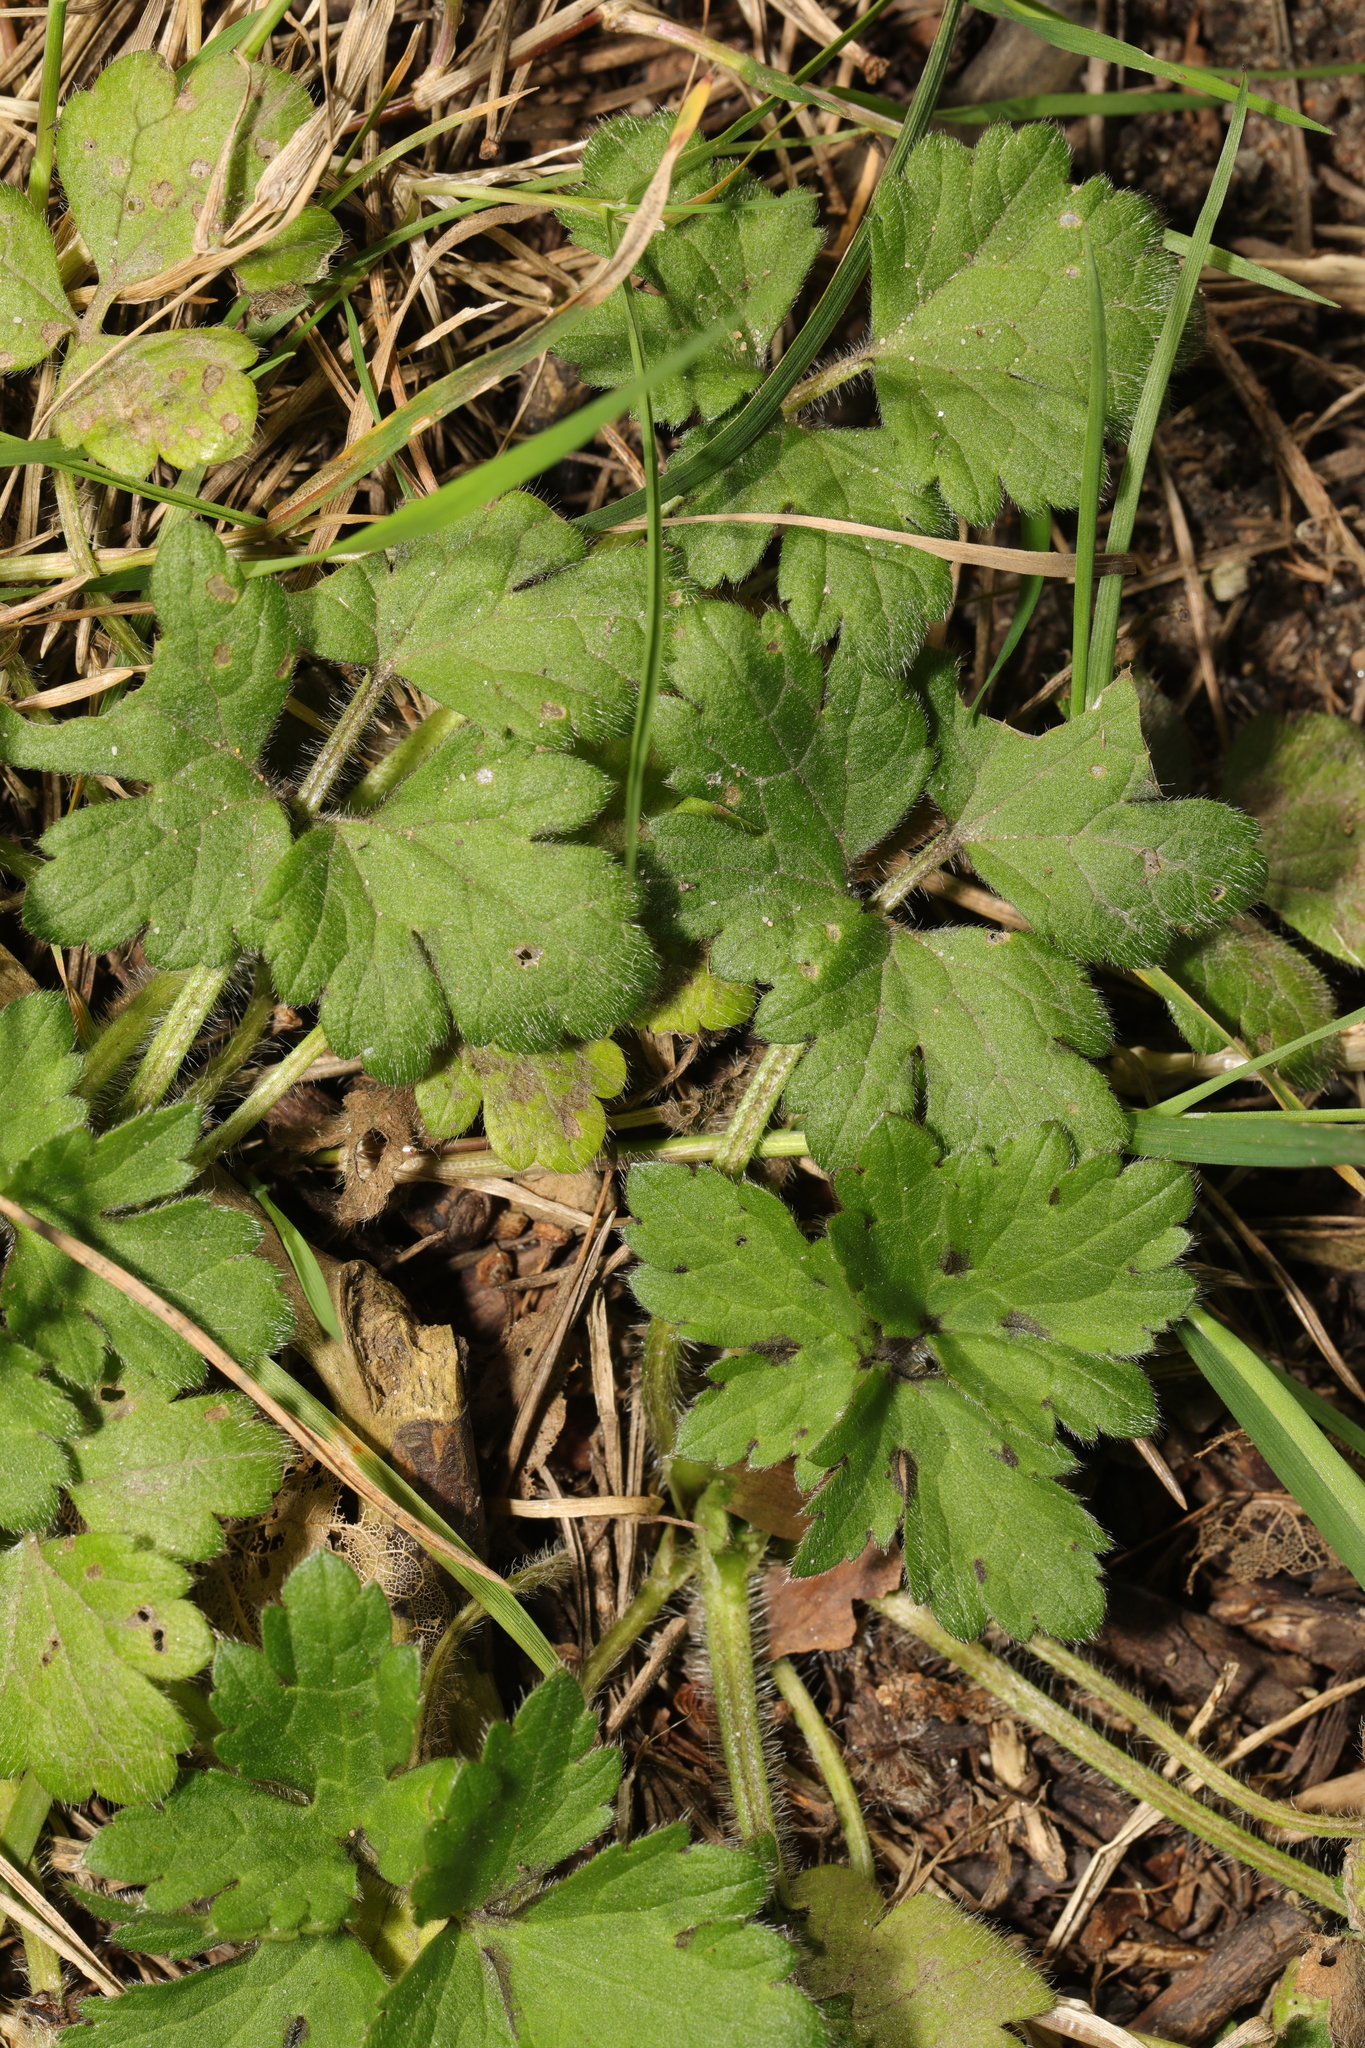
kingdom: Plantae
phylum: Tracheophyta
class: Magnoliopsida
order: Ranunculales
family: Ranunculaceae
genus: Ranunculus
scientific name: Ranunculus repens
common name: Creeping buttercup
